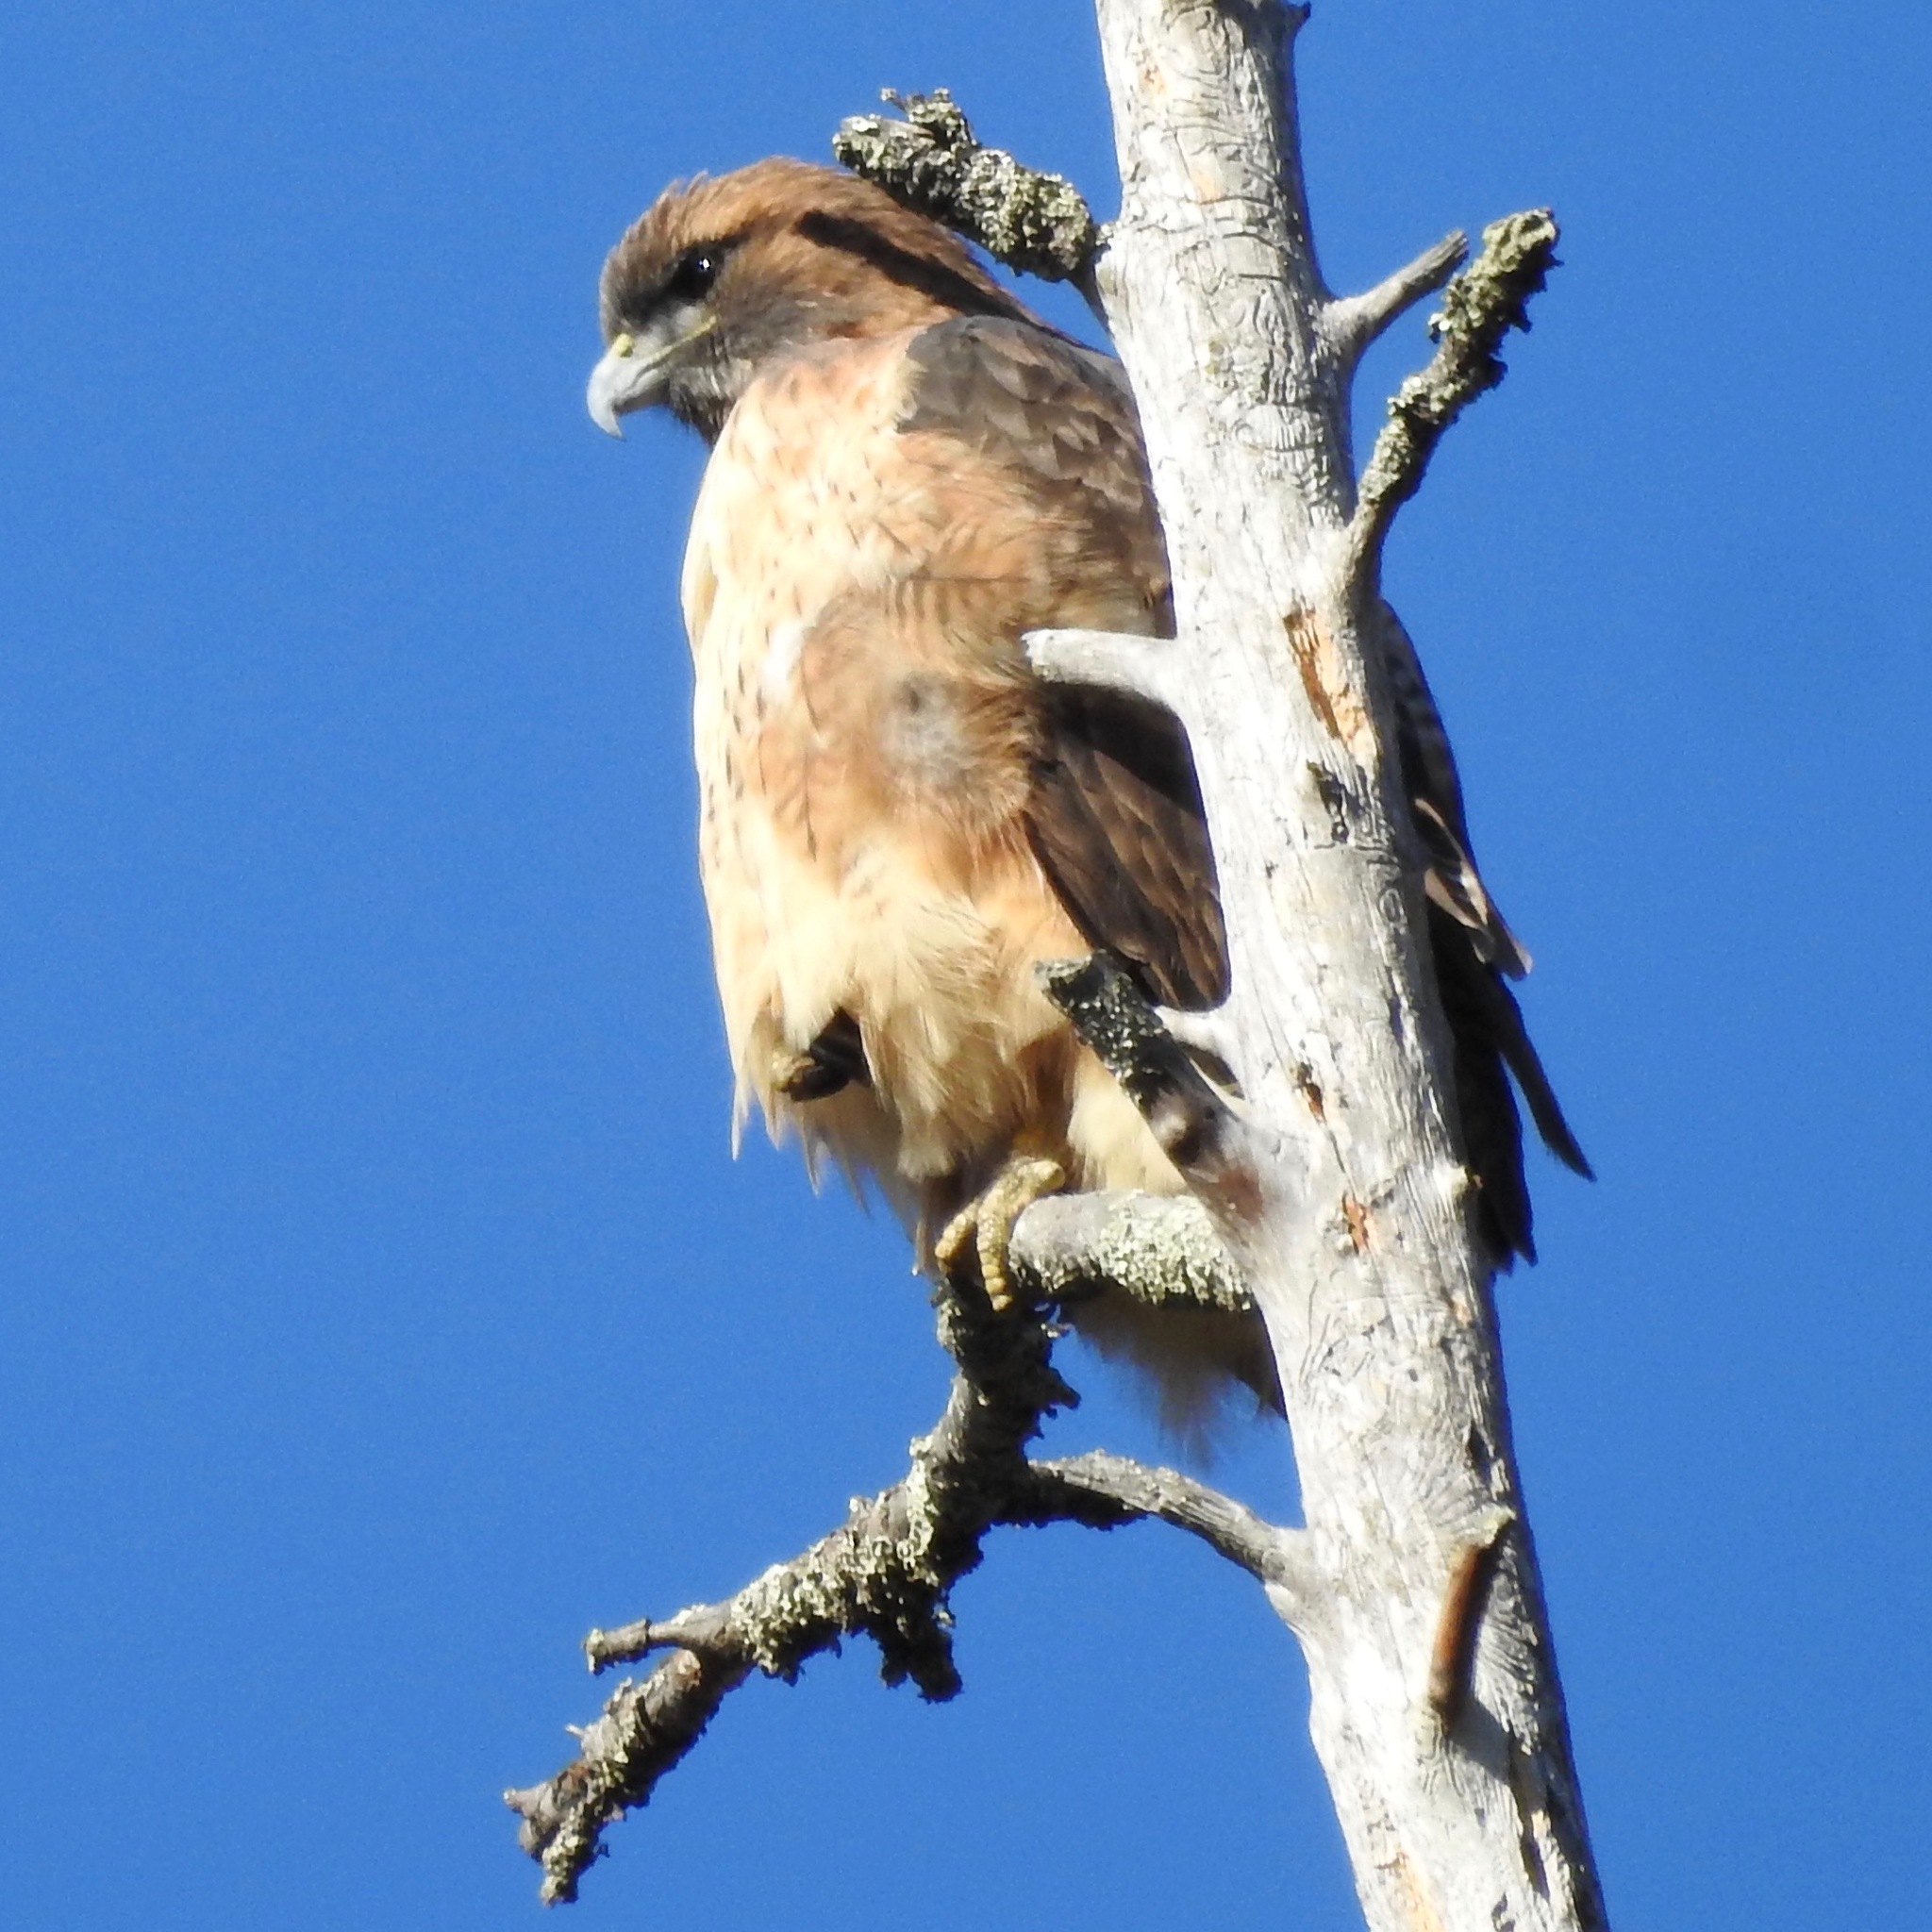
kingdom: Animalia
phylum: Chordata
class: Aves
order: Accipitriformes
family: Accipitridae
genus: Buteo
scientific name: Buteo jamaicensis
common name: Red-tailed hawk
